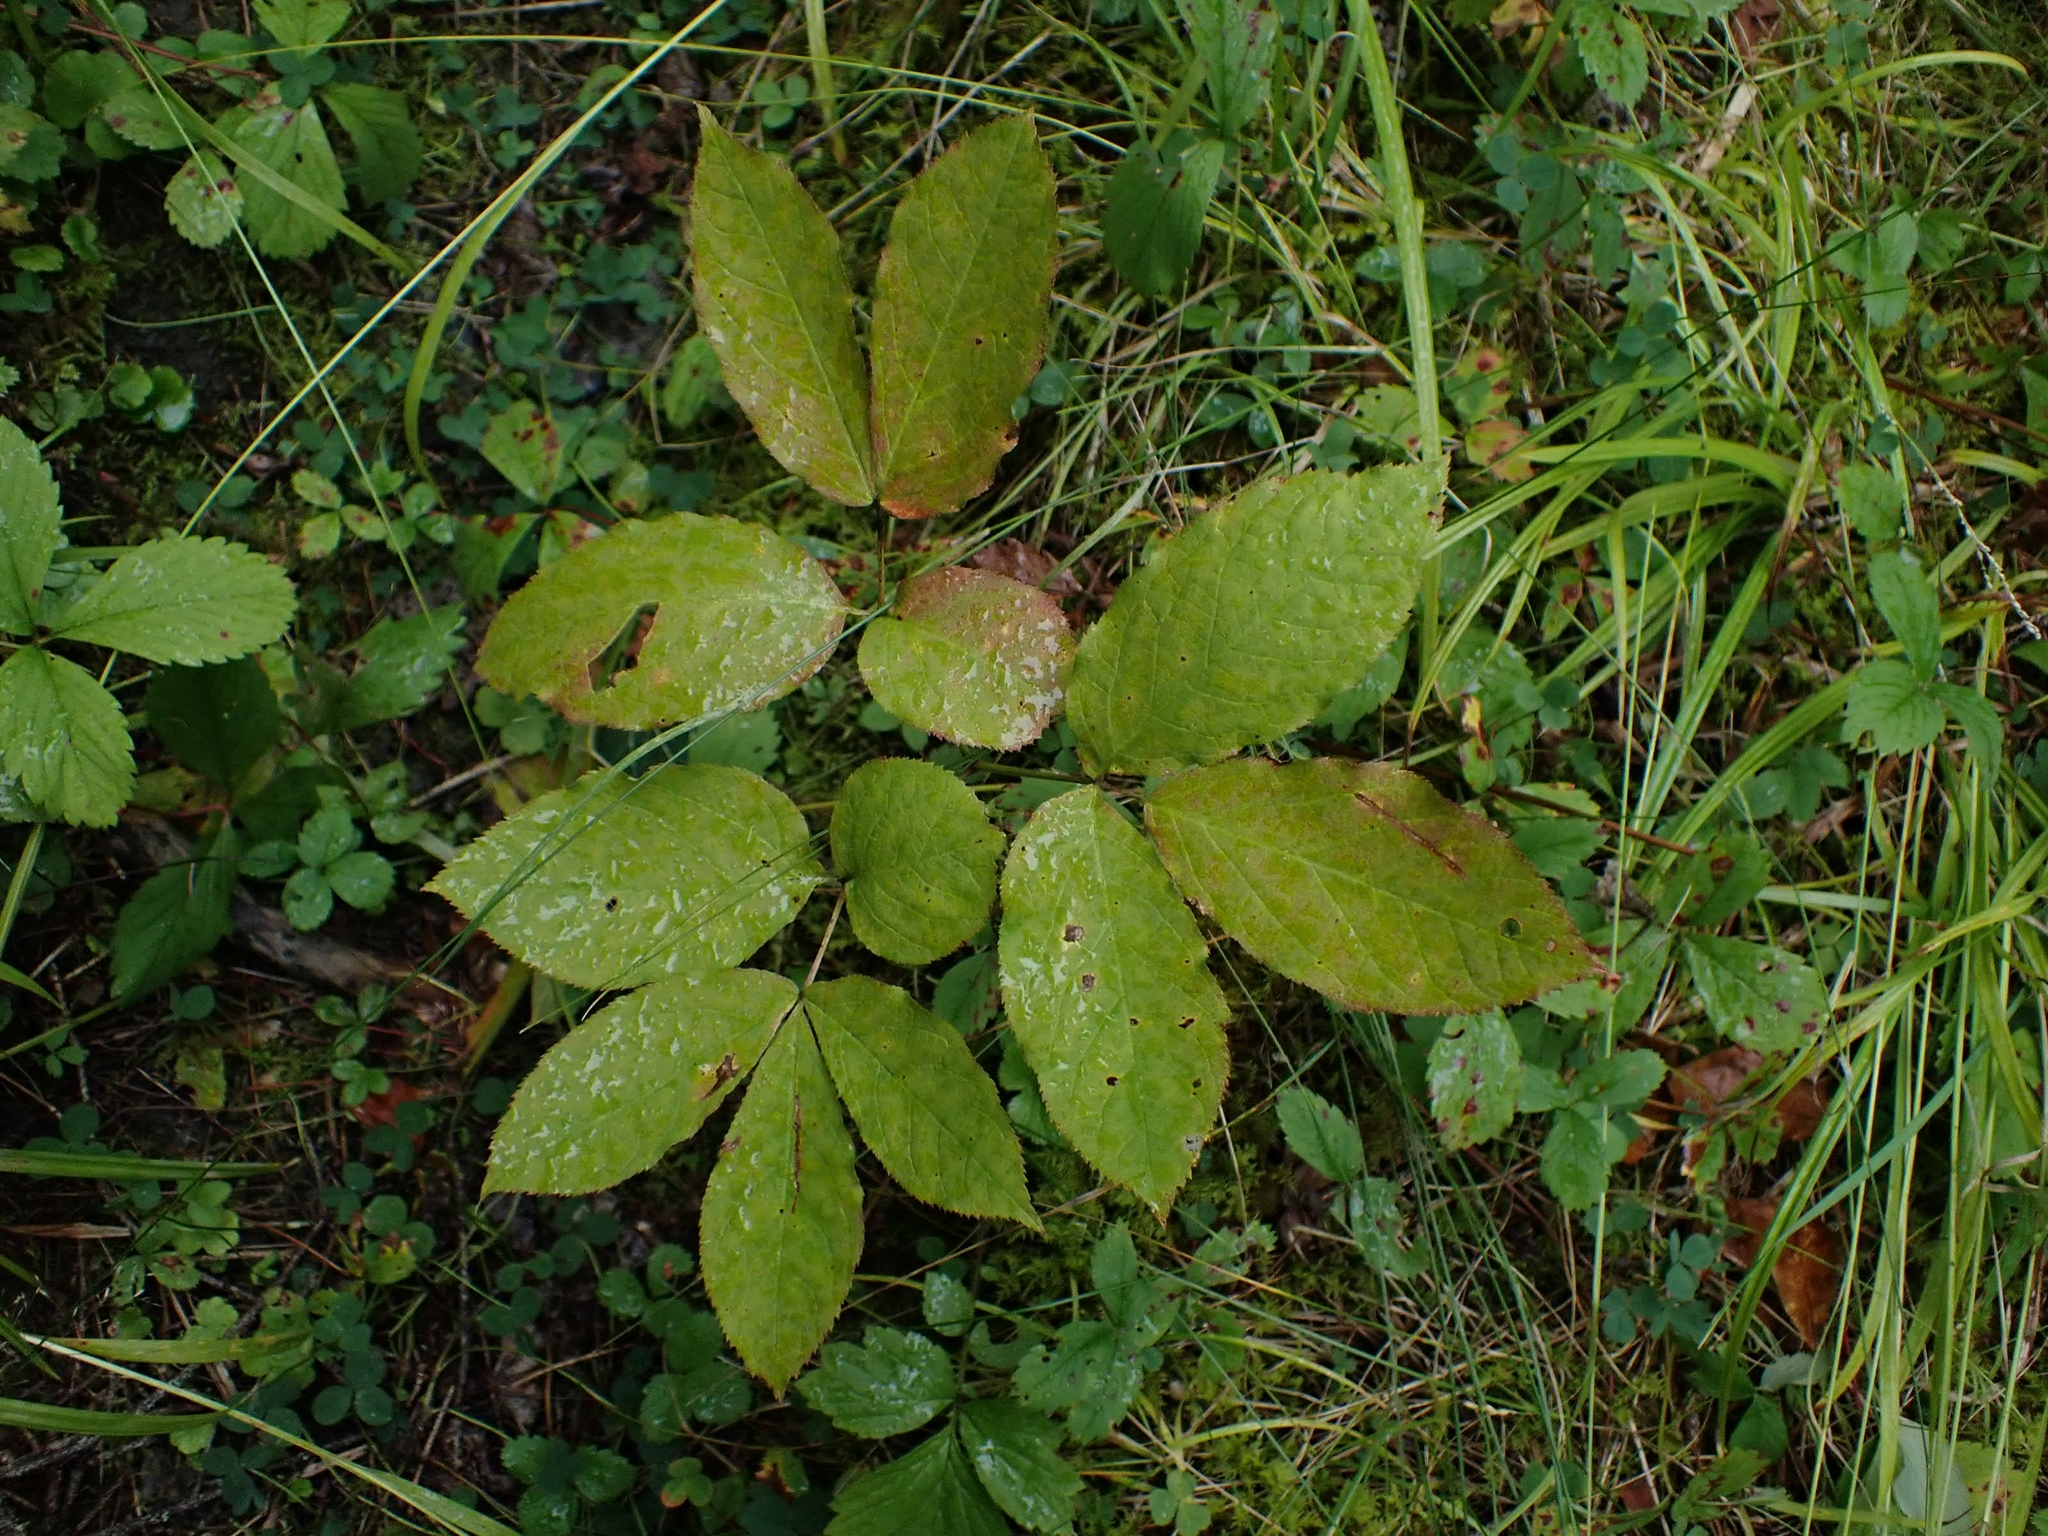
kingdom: Plantae
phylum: Tracheophyta
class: Magnoliopsida
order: Apiales
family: Araliaceae
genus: Aralia
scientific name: Aralia nudicaulis
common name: Wild sarsaparilla
